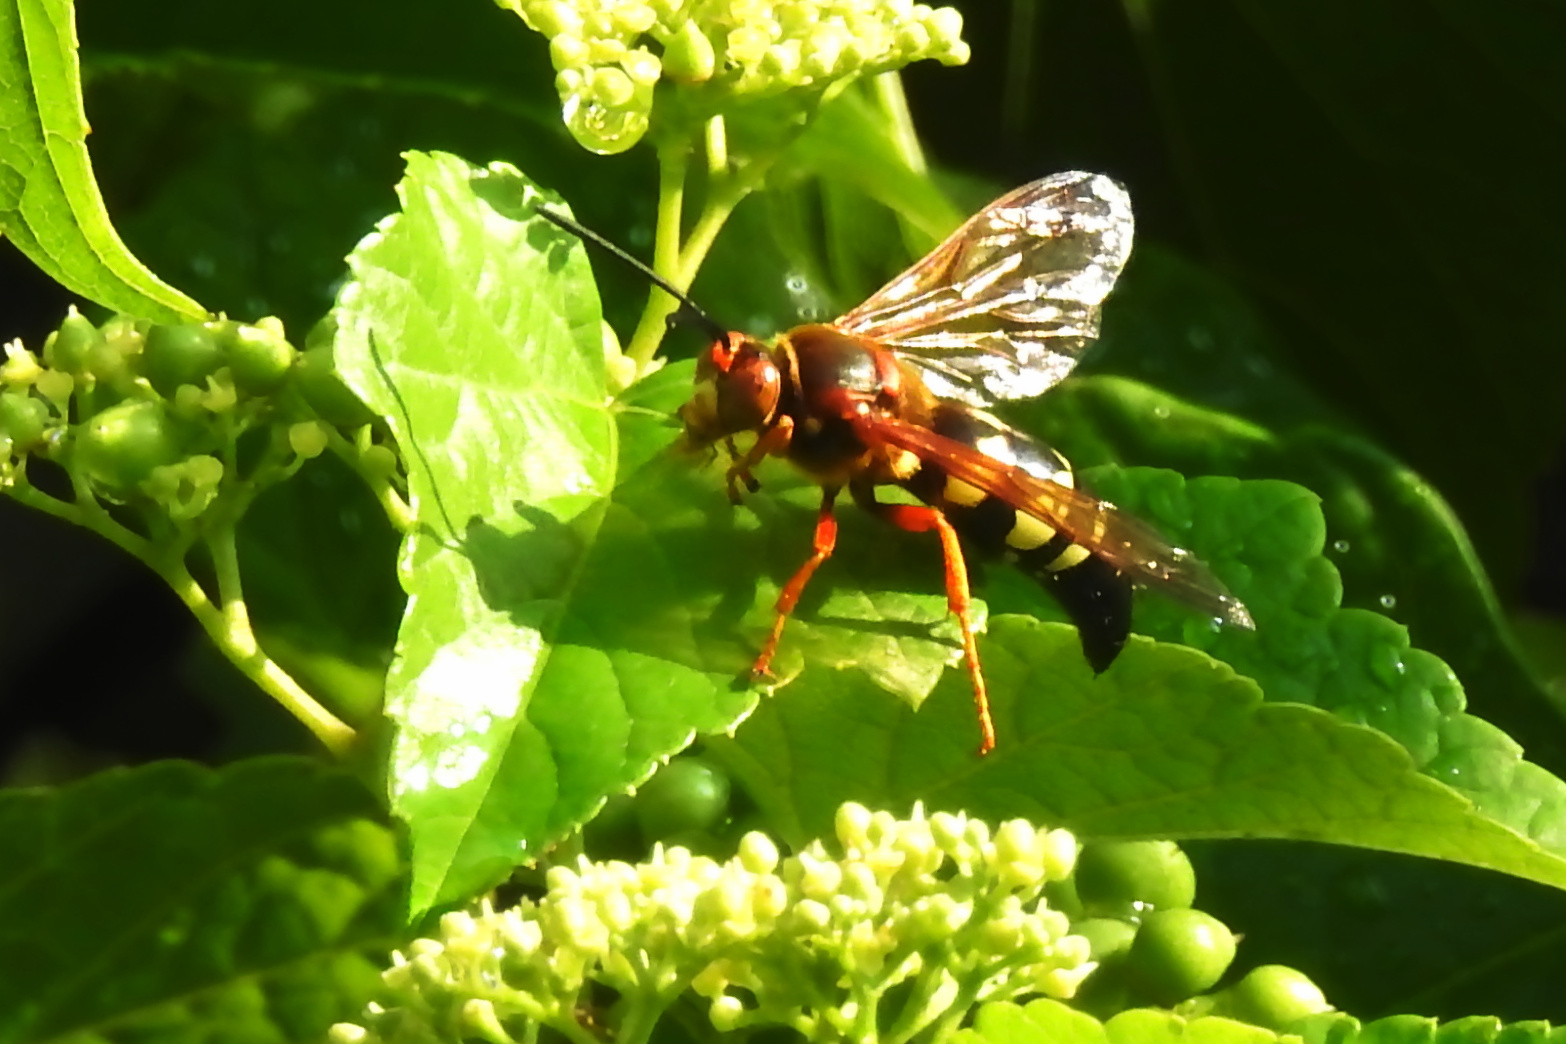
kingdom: Animalia
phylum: Arthropoda
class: Insecta
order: Hymenoptera
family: Crabronidae
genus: Sphecius
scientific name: Sphecius speciosus
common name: Cicada killer
